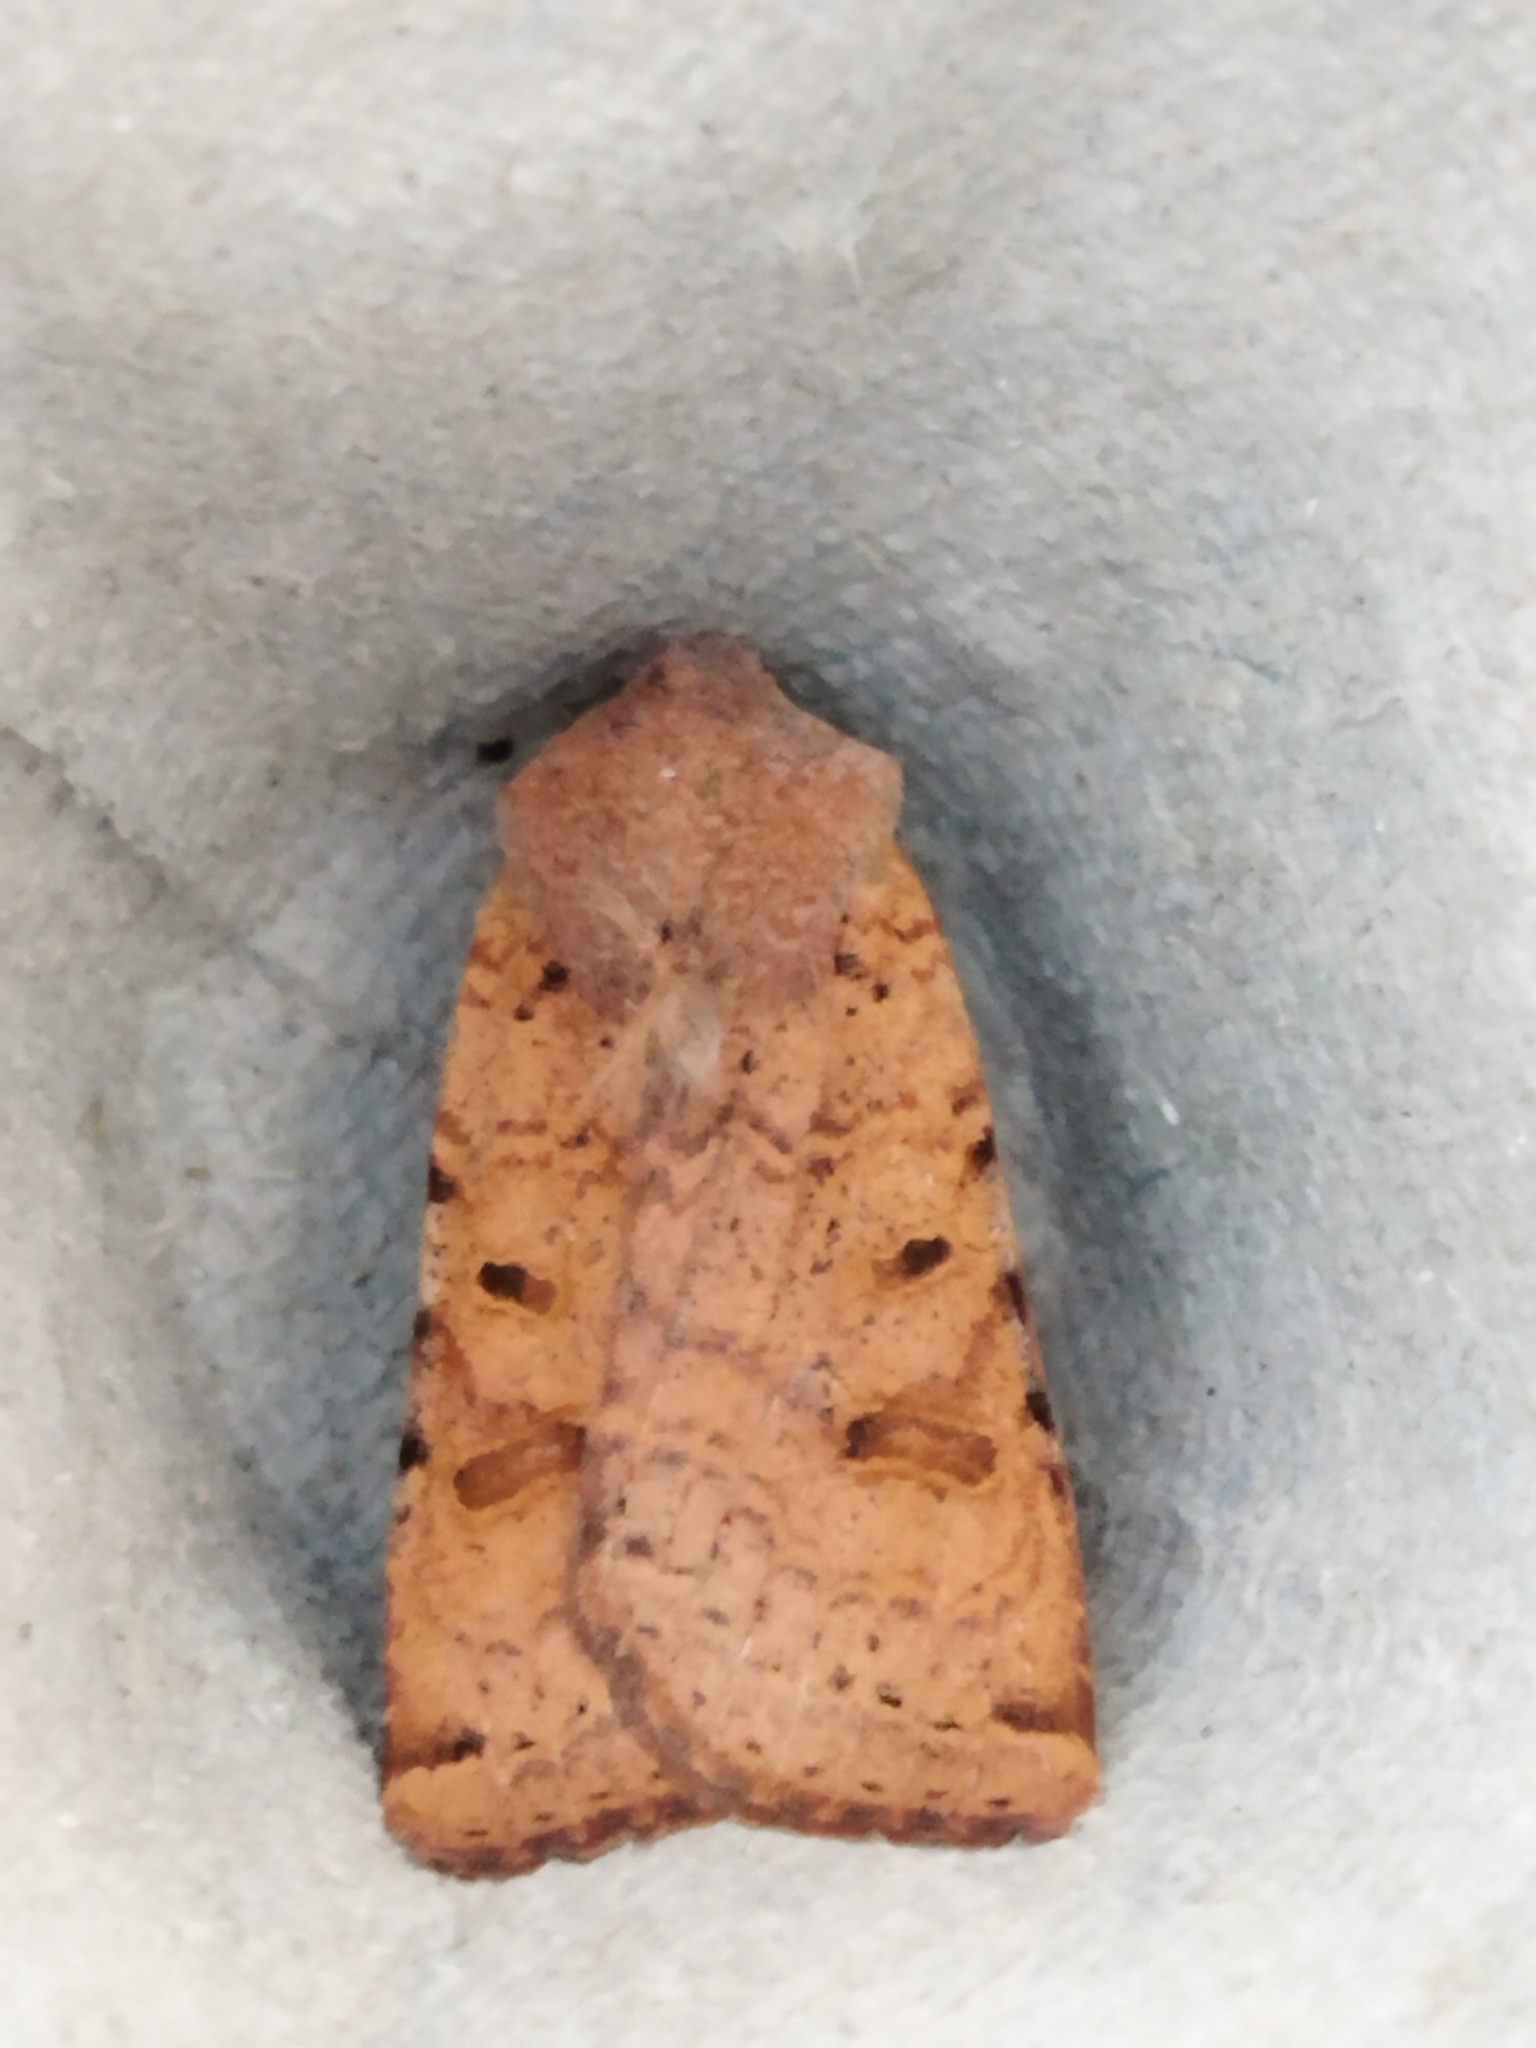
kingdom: Animalia
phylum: Arthropoda
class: Insecta
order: Lepidoptera
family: Noctuidae
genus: Agrochola
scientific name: Agrochola lychnidis
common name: Beaded chestnut
